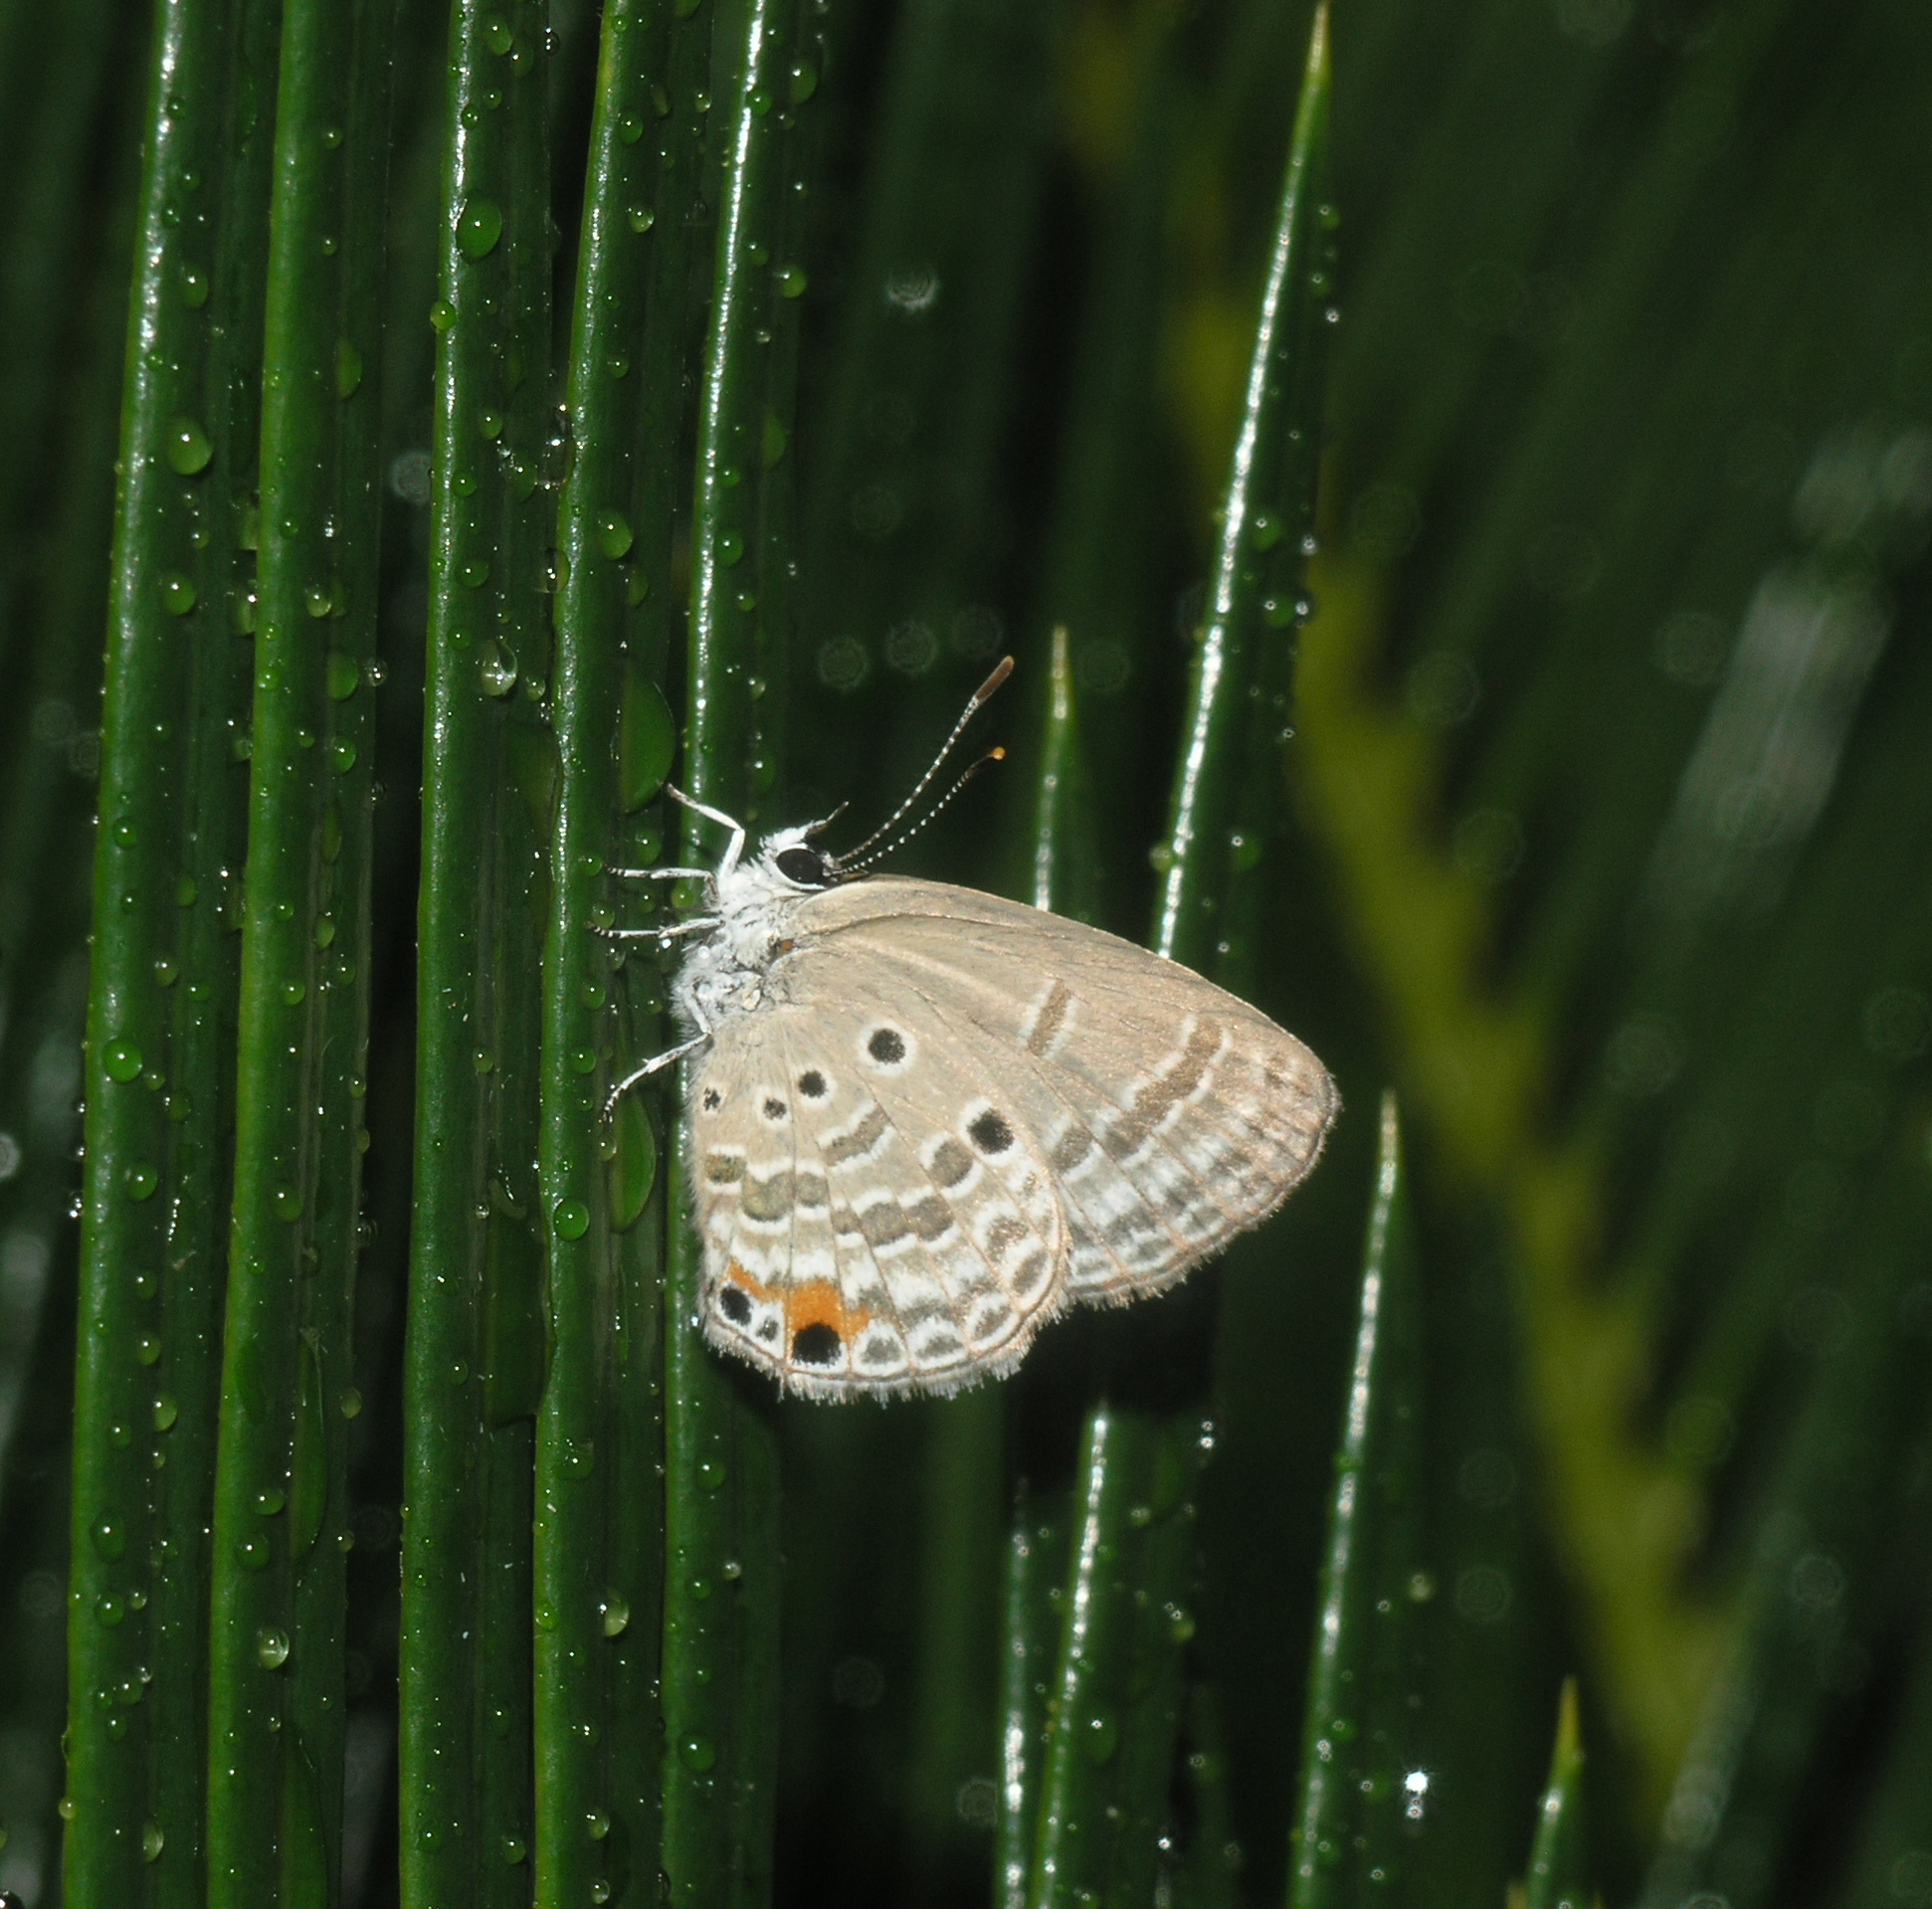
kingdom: Animalia
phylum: Arthropoda
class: Insecta
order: Lepidoptera
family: Lycaenidae
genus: Luthrodes
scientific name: Luthrodes pandava
